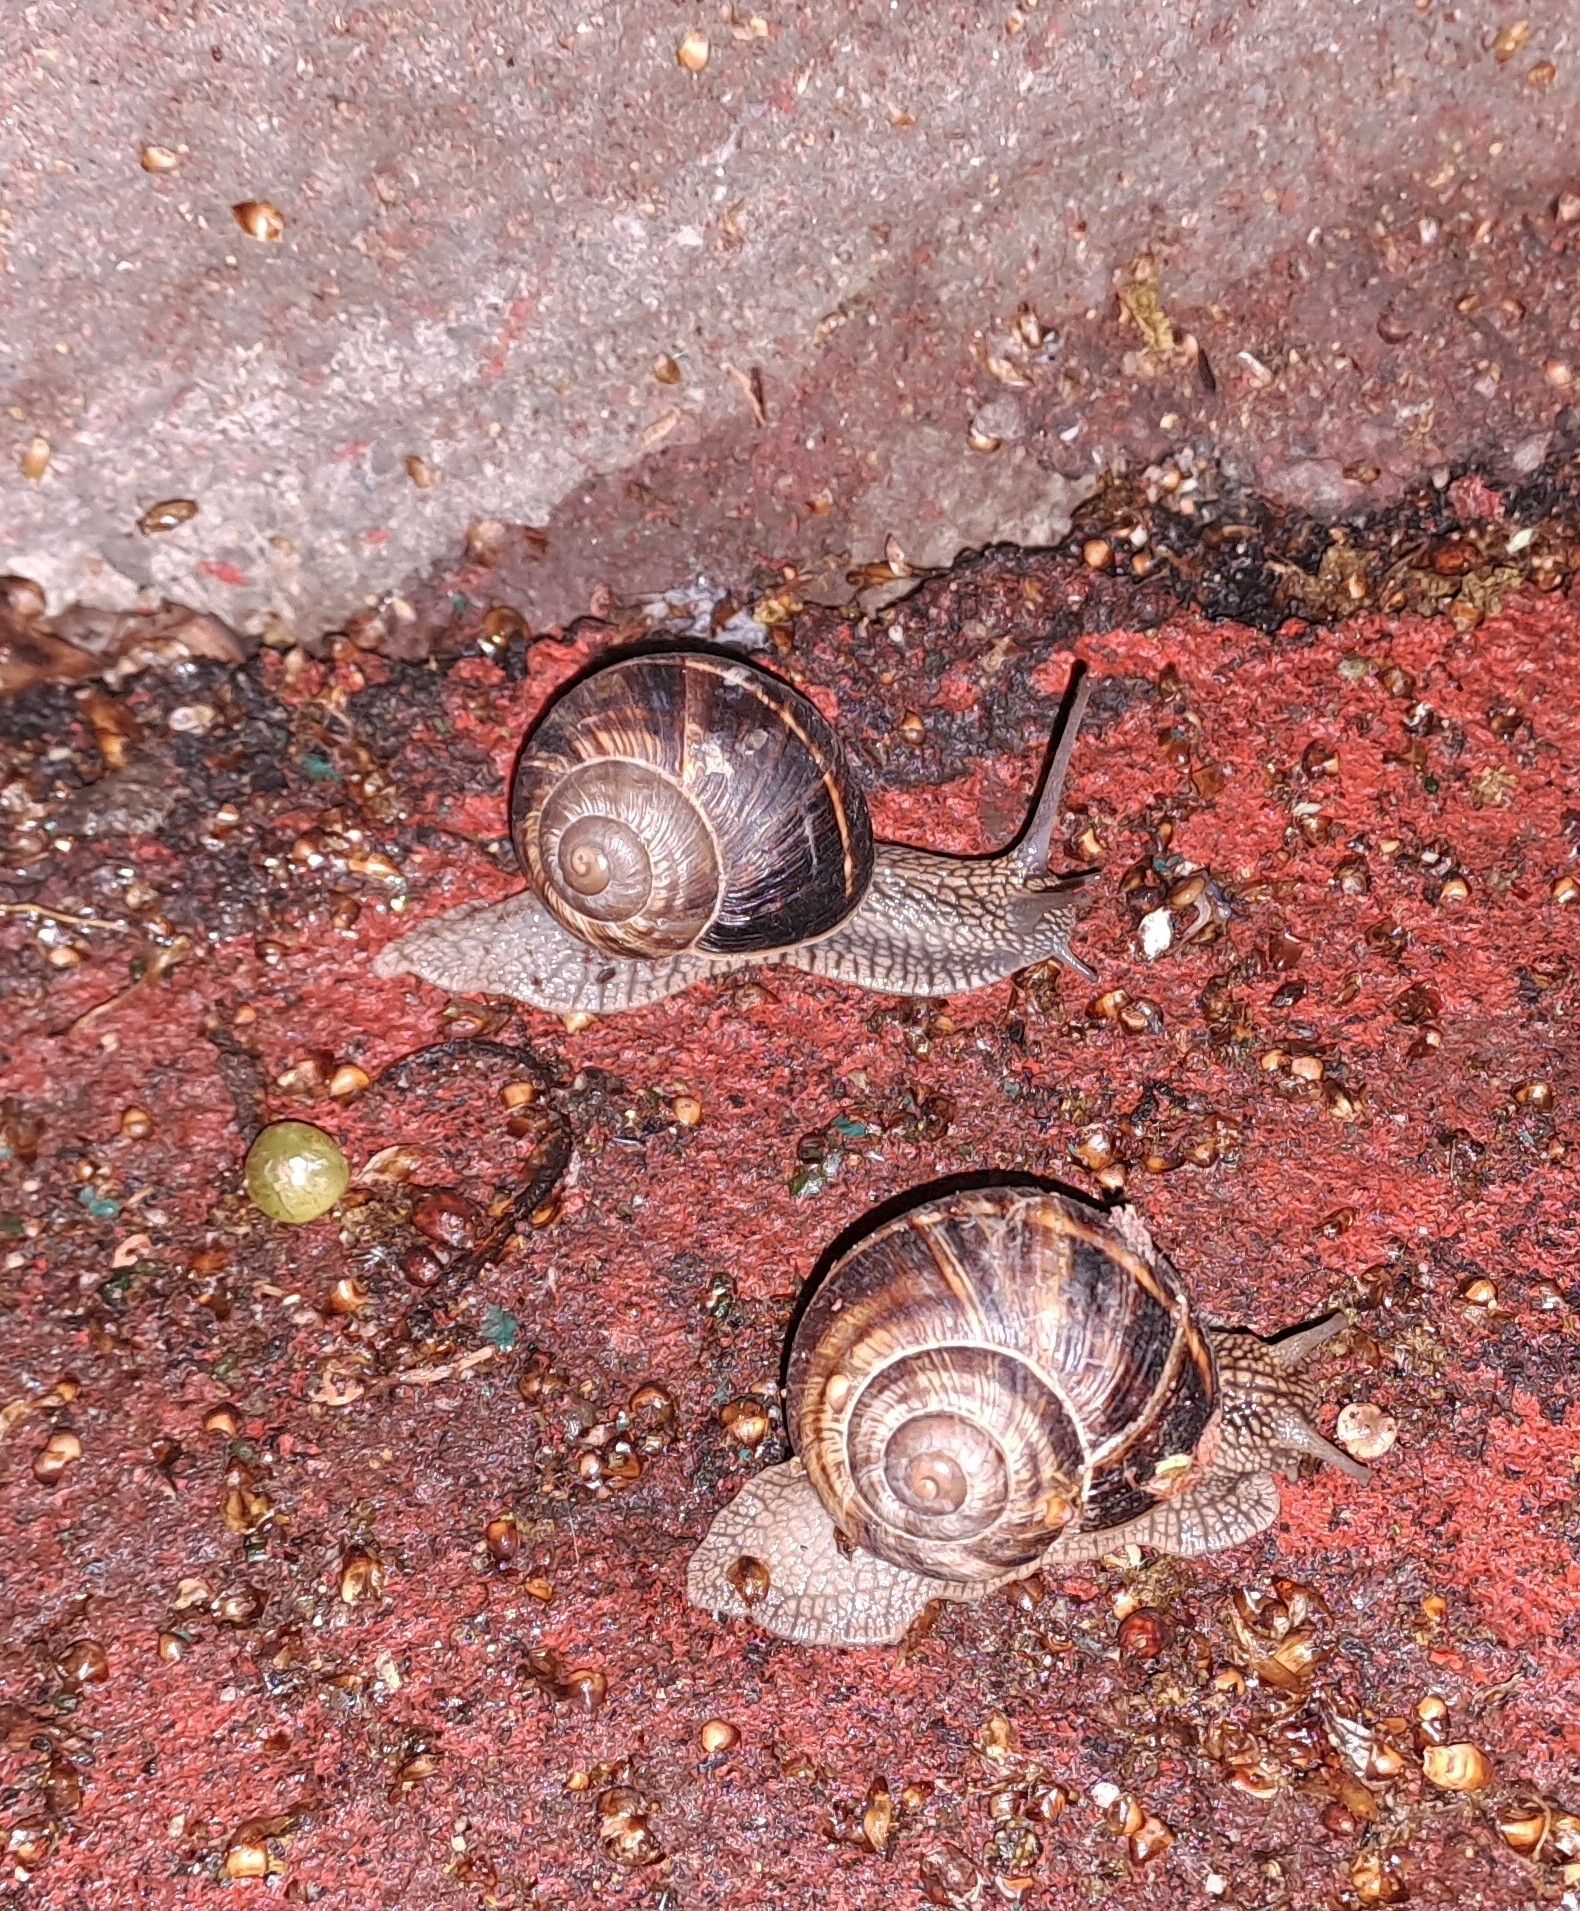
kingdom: Animalia
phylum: Mollusca
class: Gastropoda
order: Stylommatophora
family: Helicidae
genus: Helix
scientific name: Helix lucorum
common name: Turkish snail
